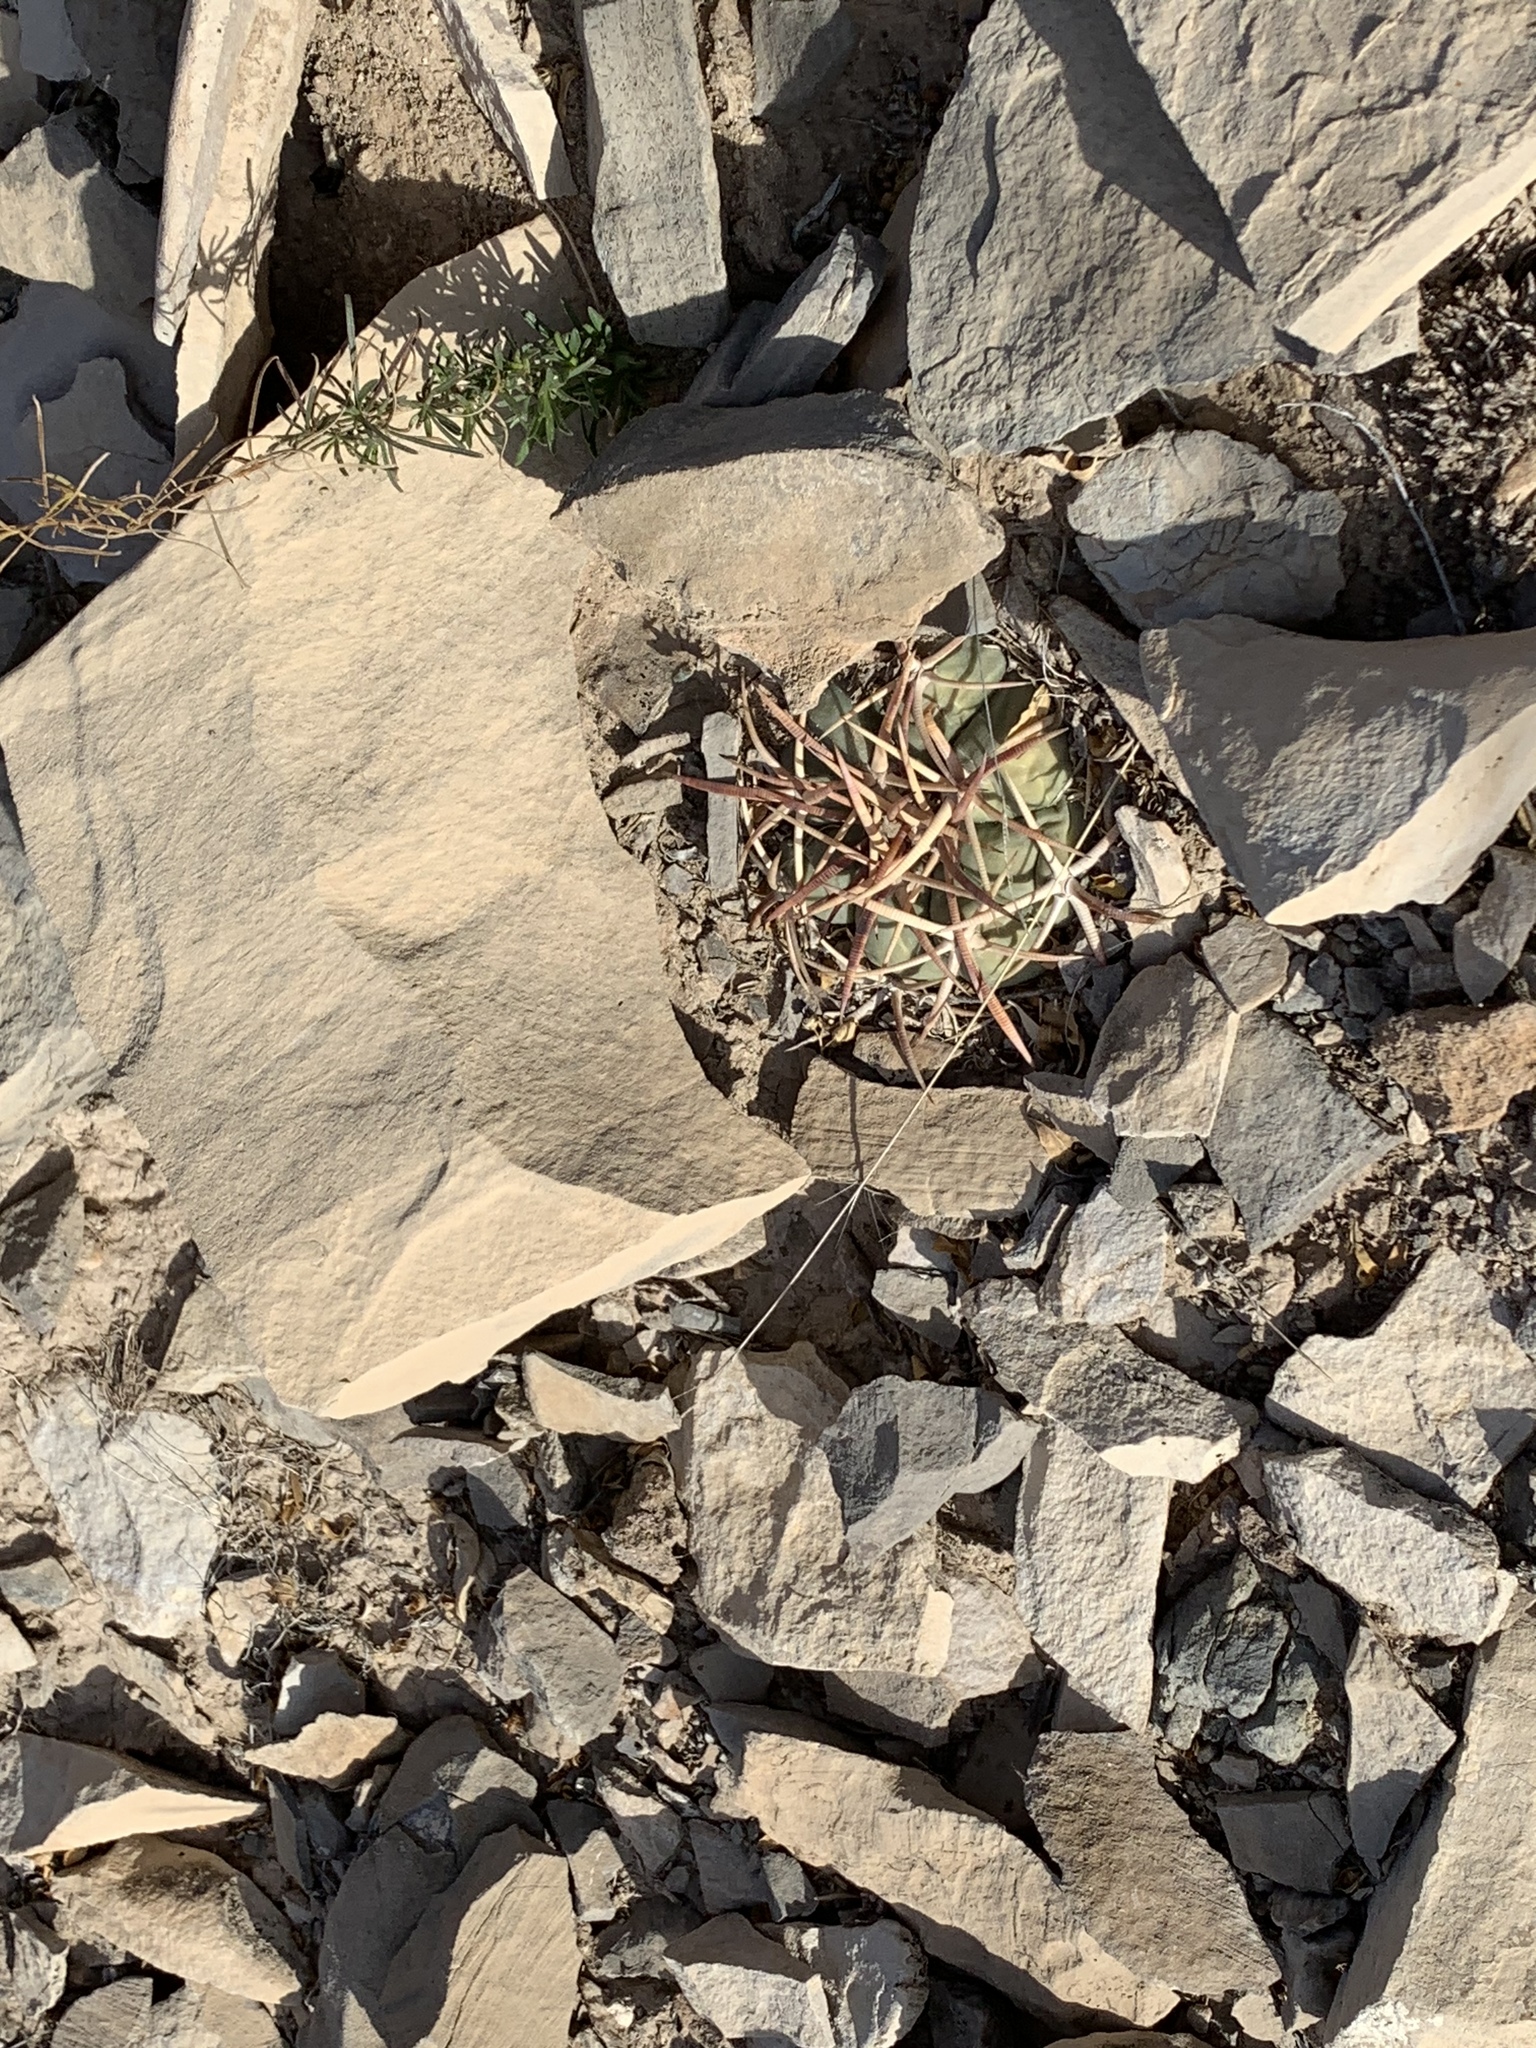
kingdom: Plantae
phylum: Tracheophyta
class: Magnoliopsida
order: Caryophyllales
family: Cactaceae
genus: Echinocactus
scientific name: Echinocactus horizonthalonius
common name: Devilshead
